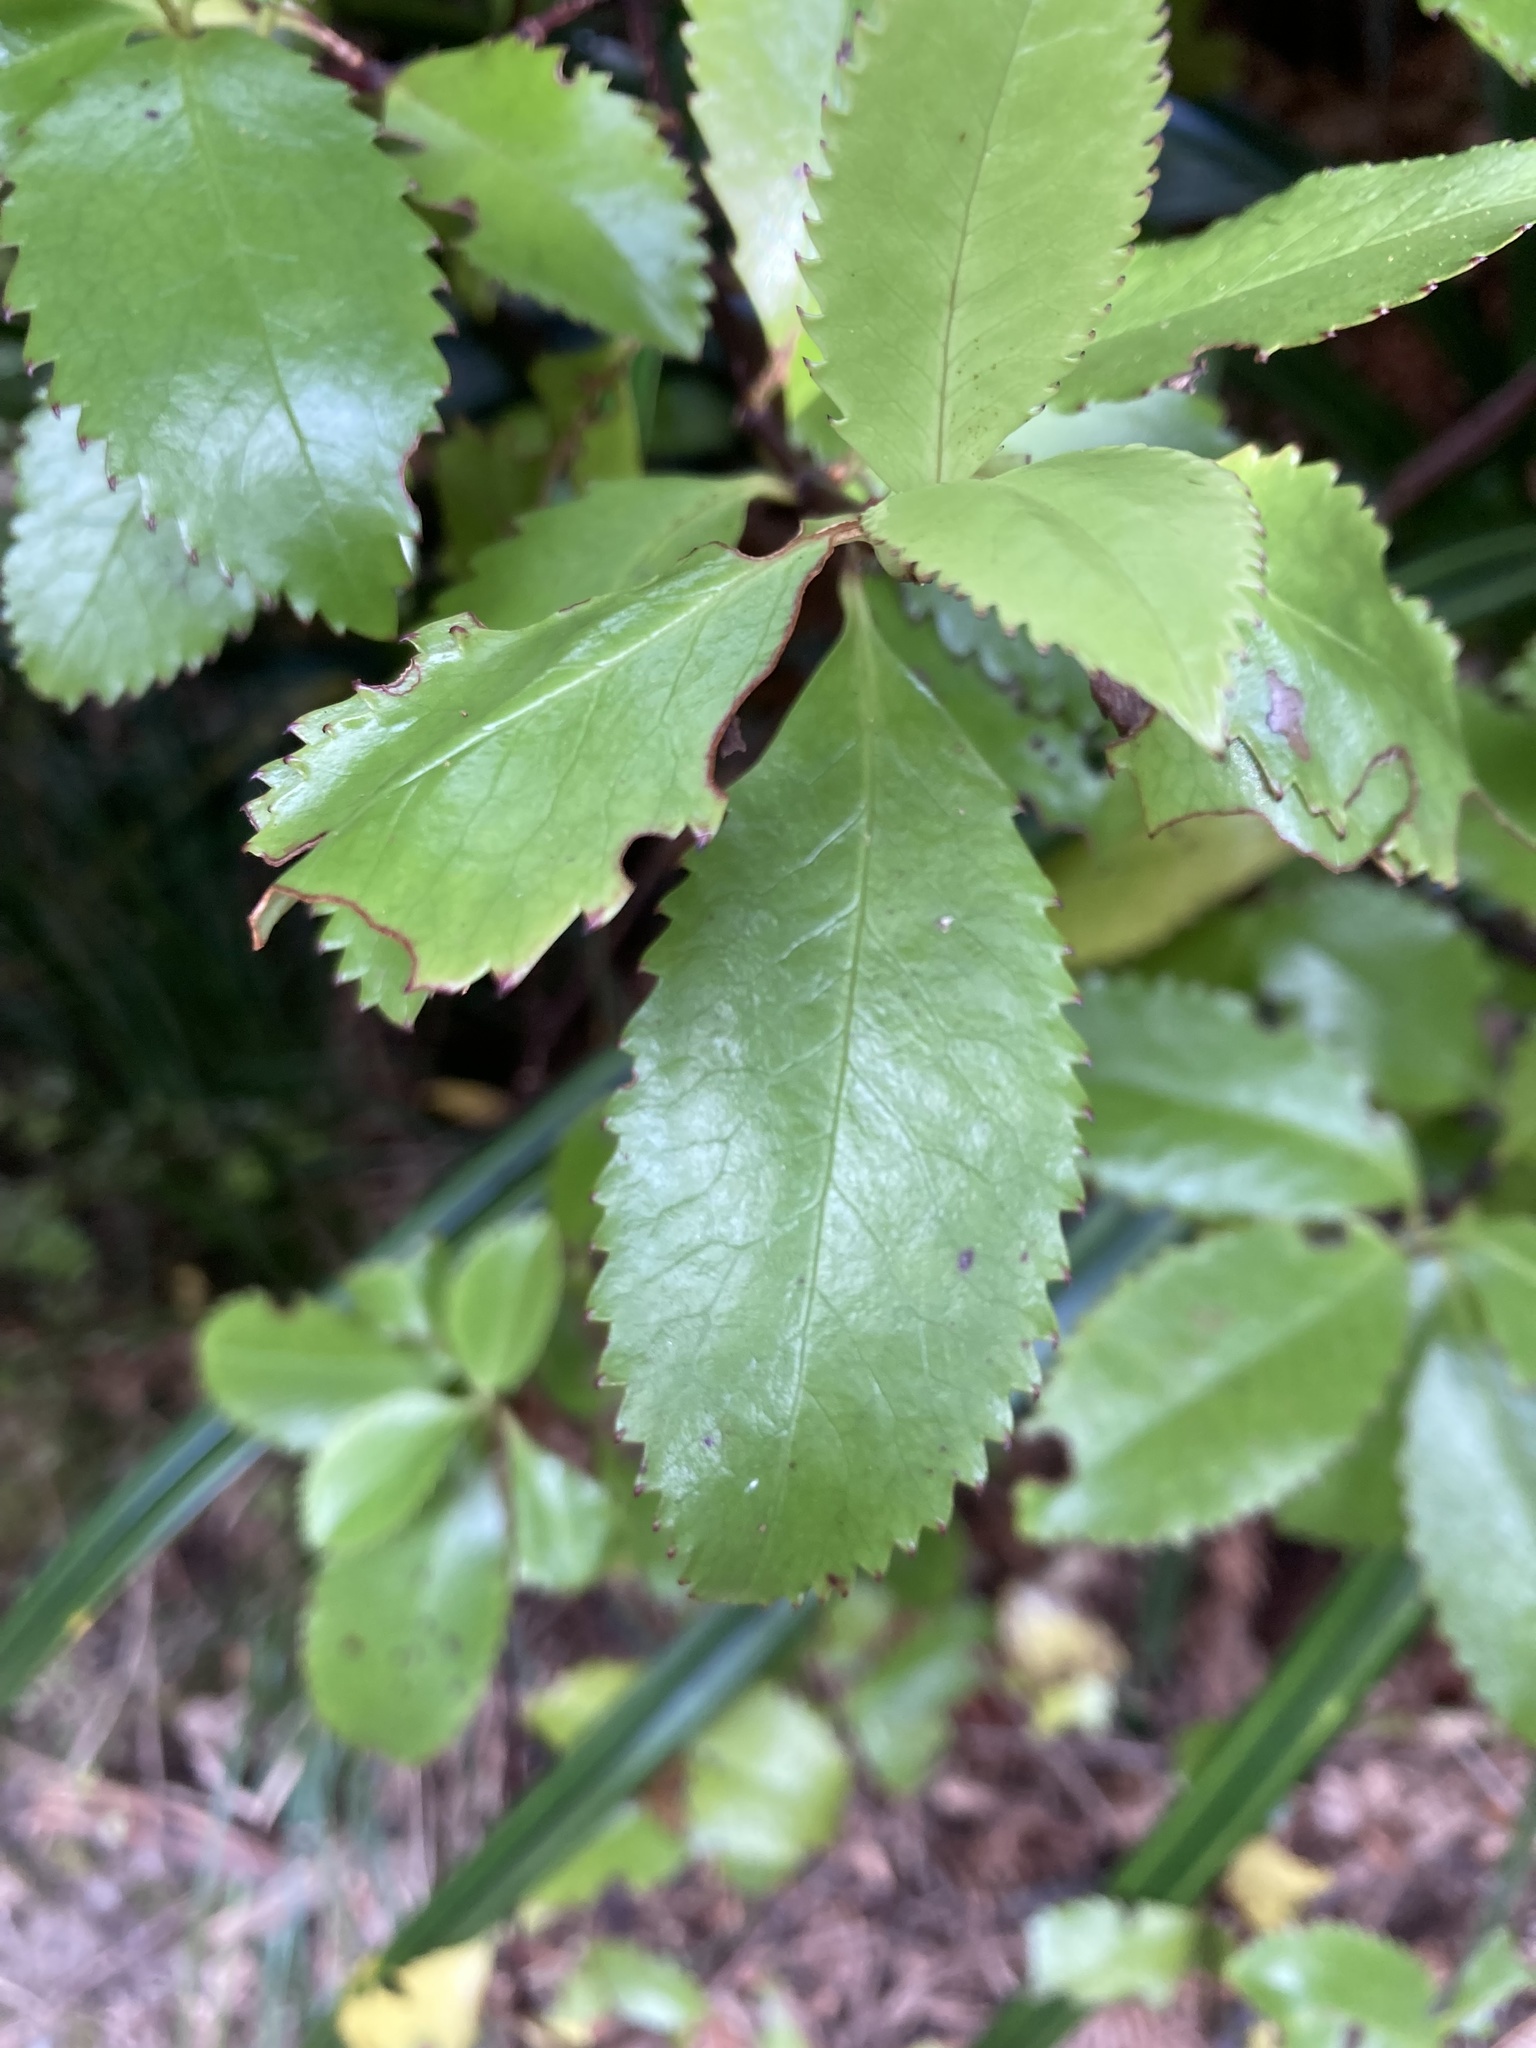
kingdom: Plantae
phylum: Tracheophyta
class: Magnoliopsida
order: Chloranthales
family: Chloranthaceae
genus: Ascarina
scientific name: Ascarina lucida
